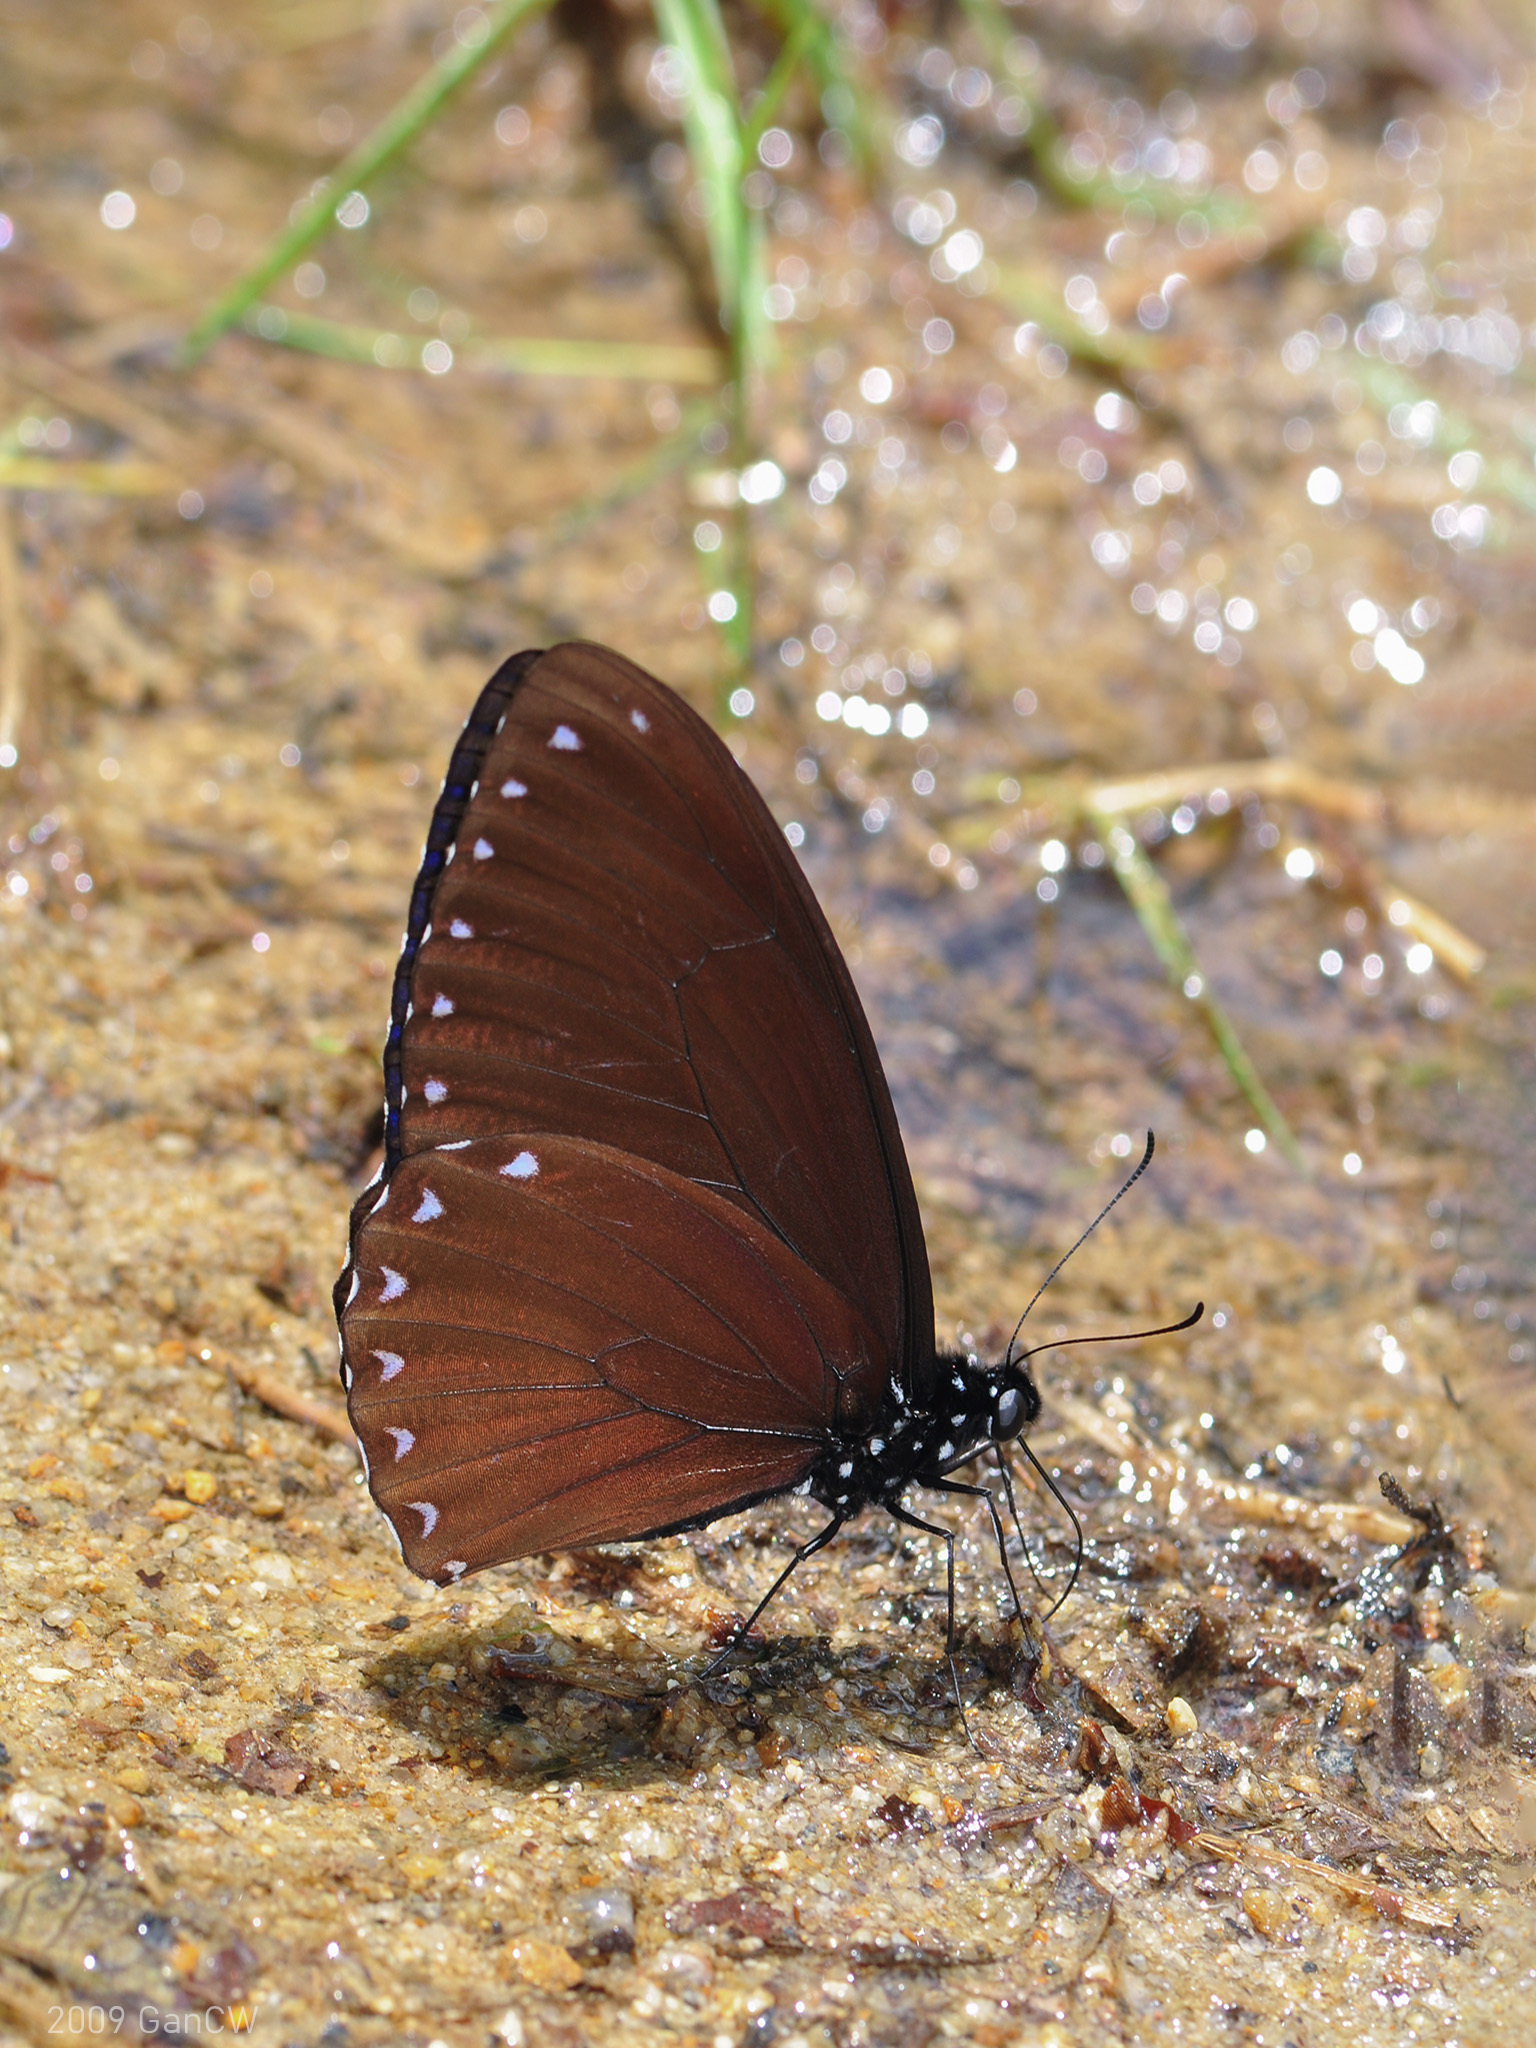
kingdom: Animalia
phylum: Arthropoda
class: Insecta
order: Lepidoptera
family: Papilionidae
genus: Papilio
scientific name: Papilio paradoxa
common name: Great blue mime swallowtail
